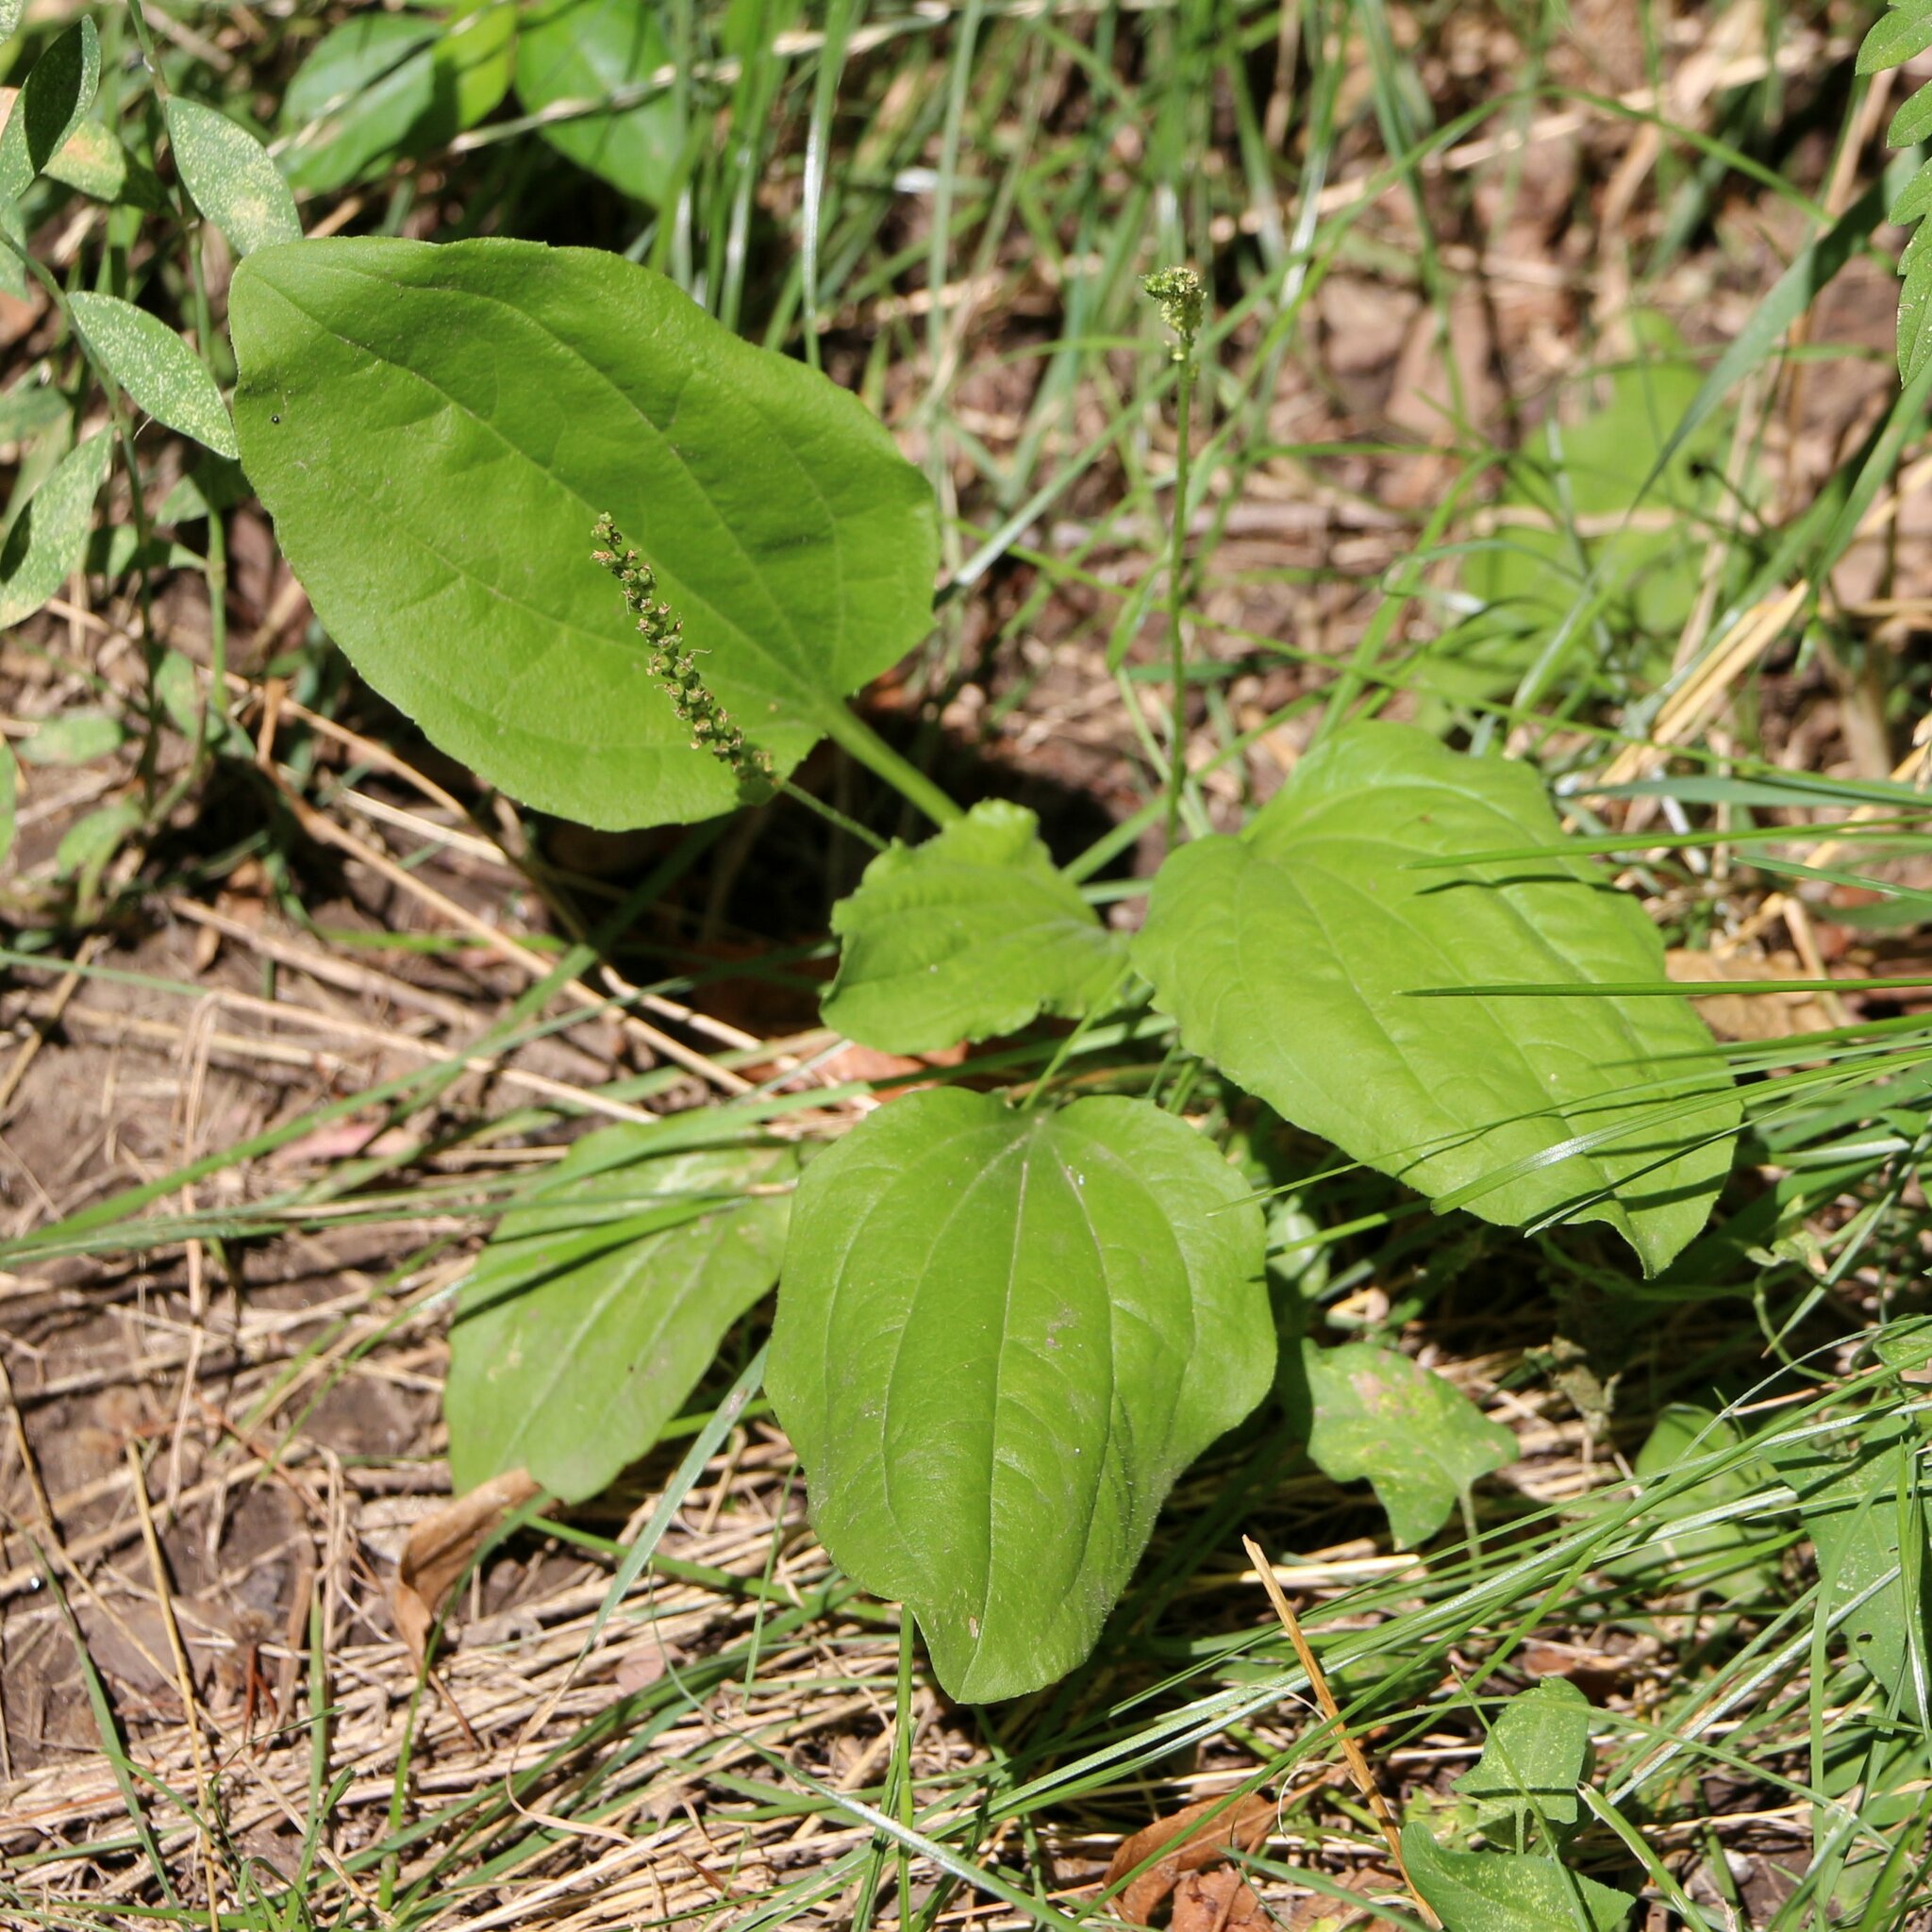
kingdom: Plantae
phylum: Tracheophyta
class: Magnoliopsida
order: Lamiales
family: Plantaginaceae
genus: Plantago
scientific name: Plantago major
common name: Common plantain
